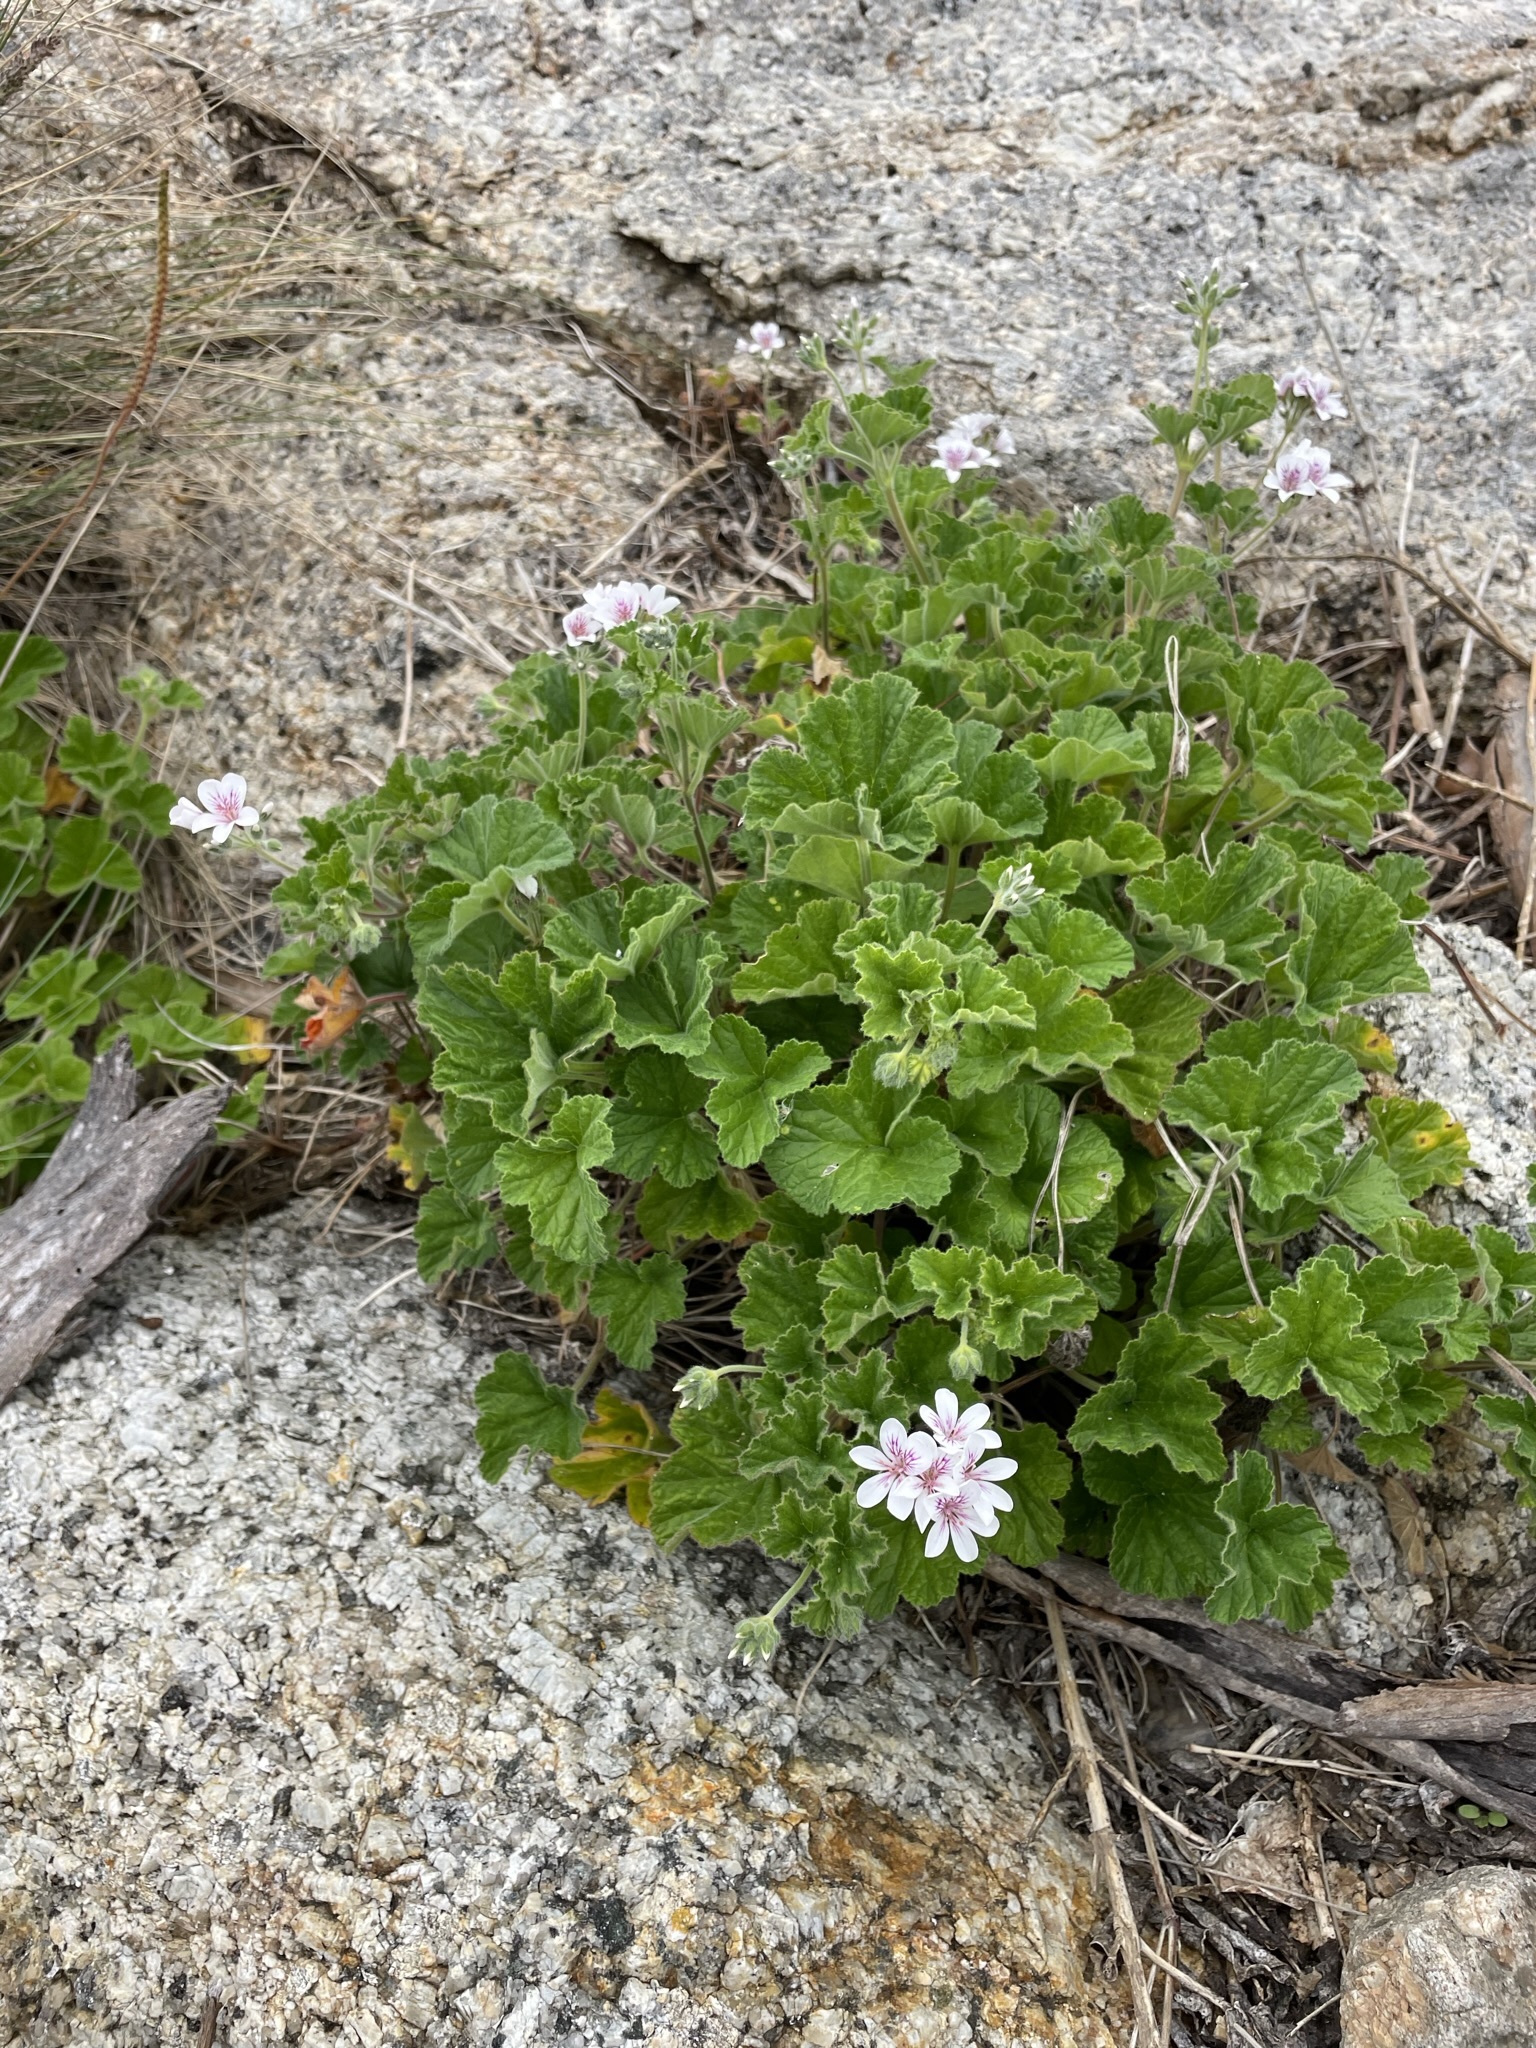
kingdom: Plantae
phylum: Tracheophyta
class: Magnoliopsida
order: Geraniales
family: Geraniaceae
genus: Pelargonium
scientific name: Pelargonium australe
